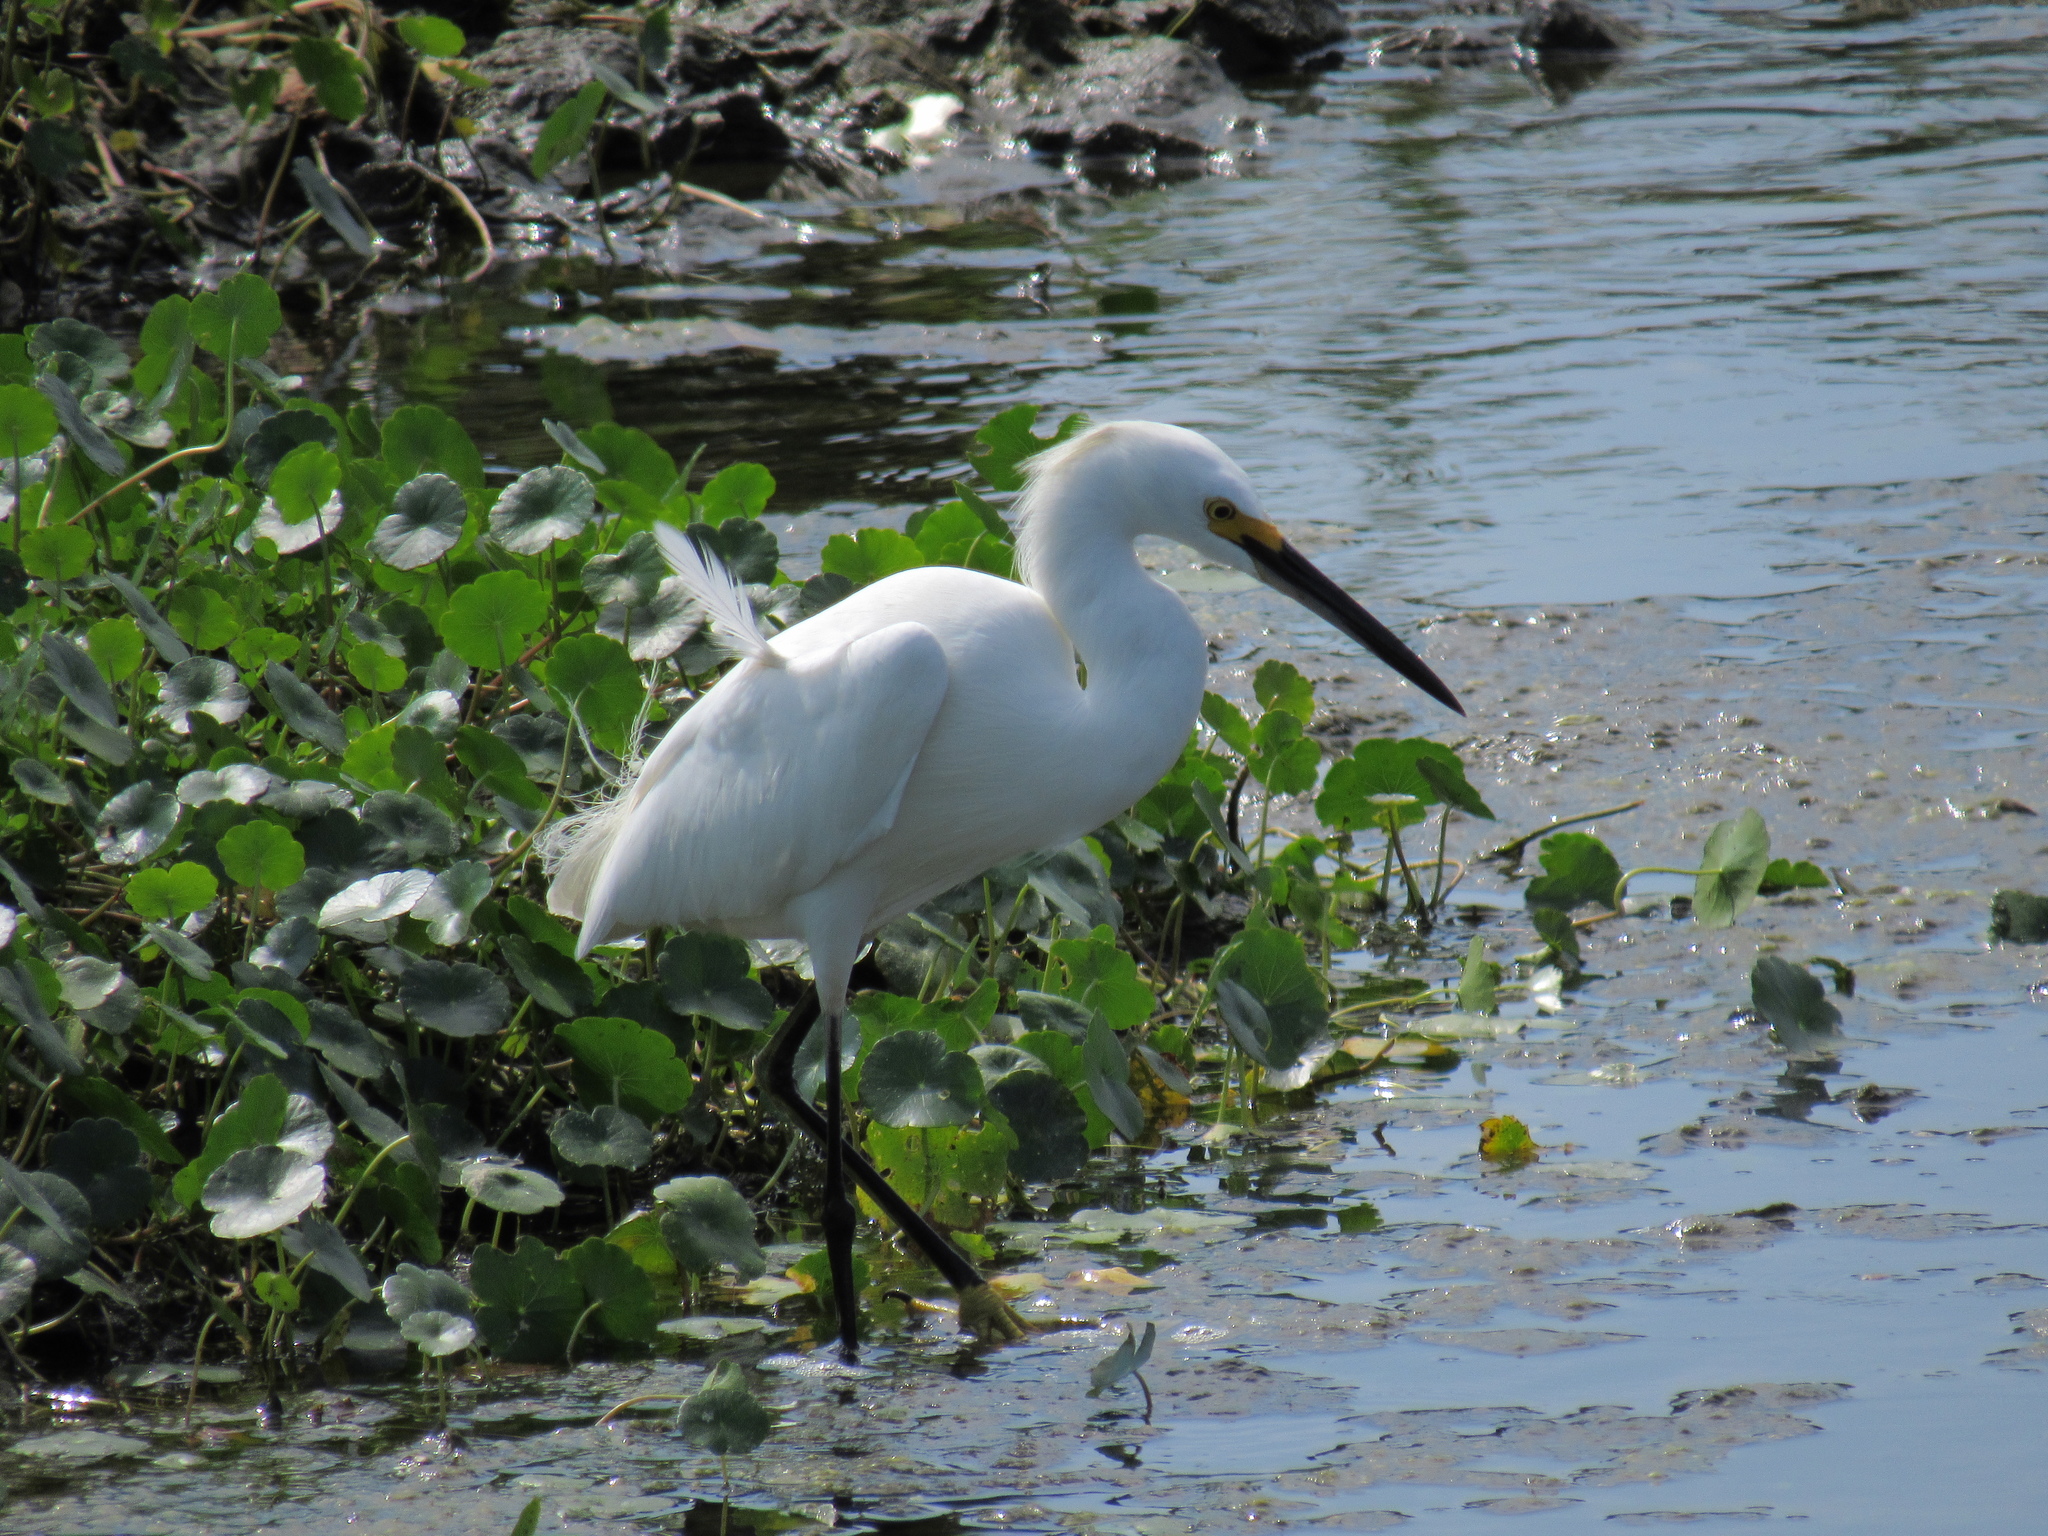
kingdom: Animalia
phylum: Chordata
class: Aves
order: Pelecaniformes
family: Ardeidae
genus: Egretta
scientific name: Egretta thula
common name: Snowy egret
